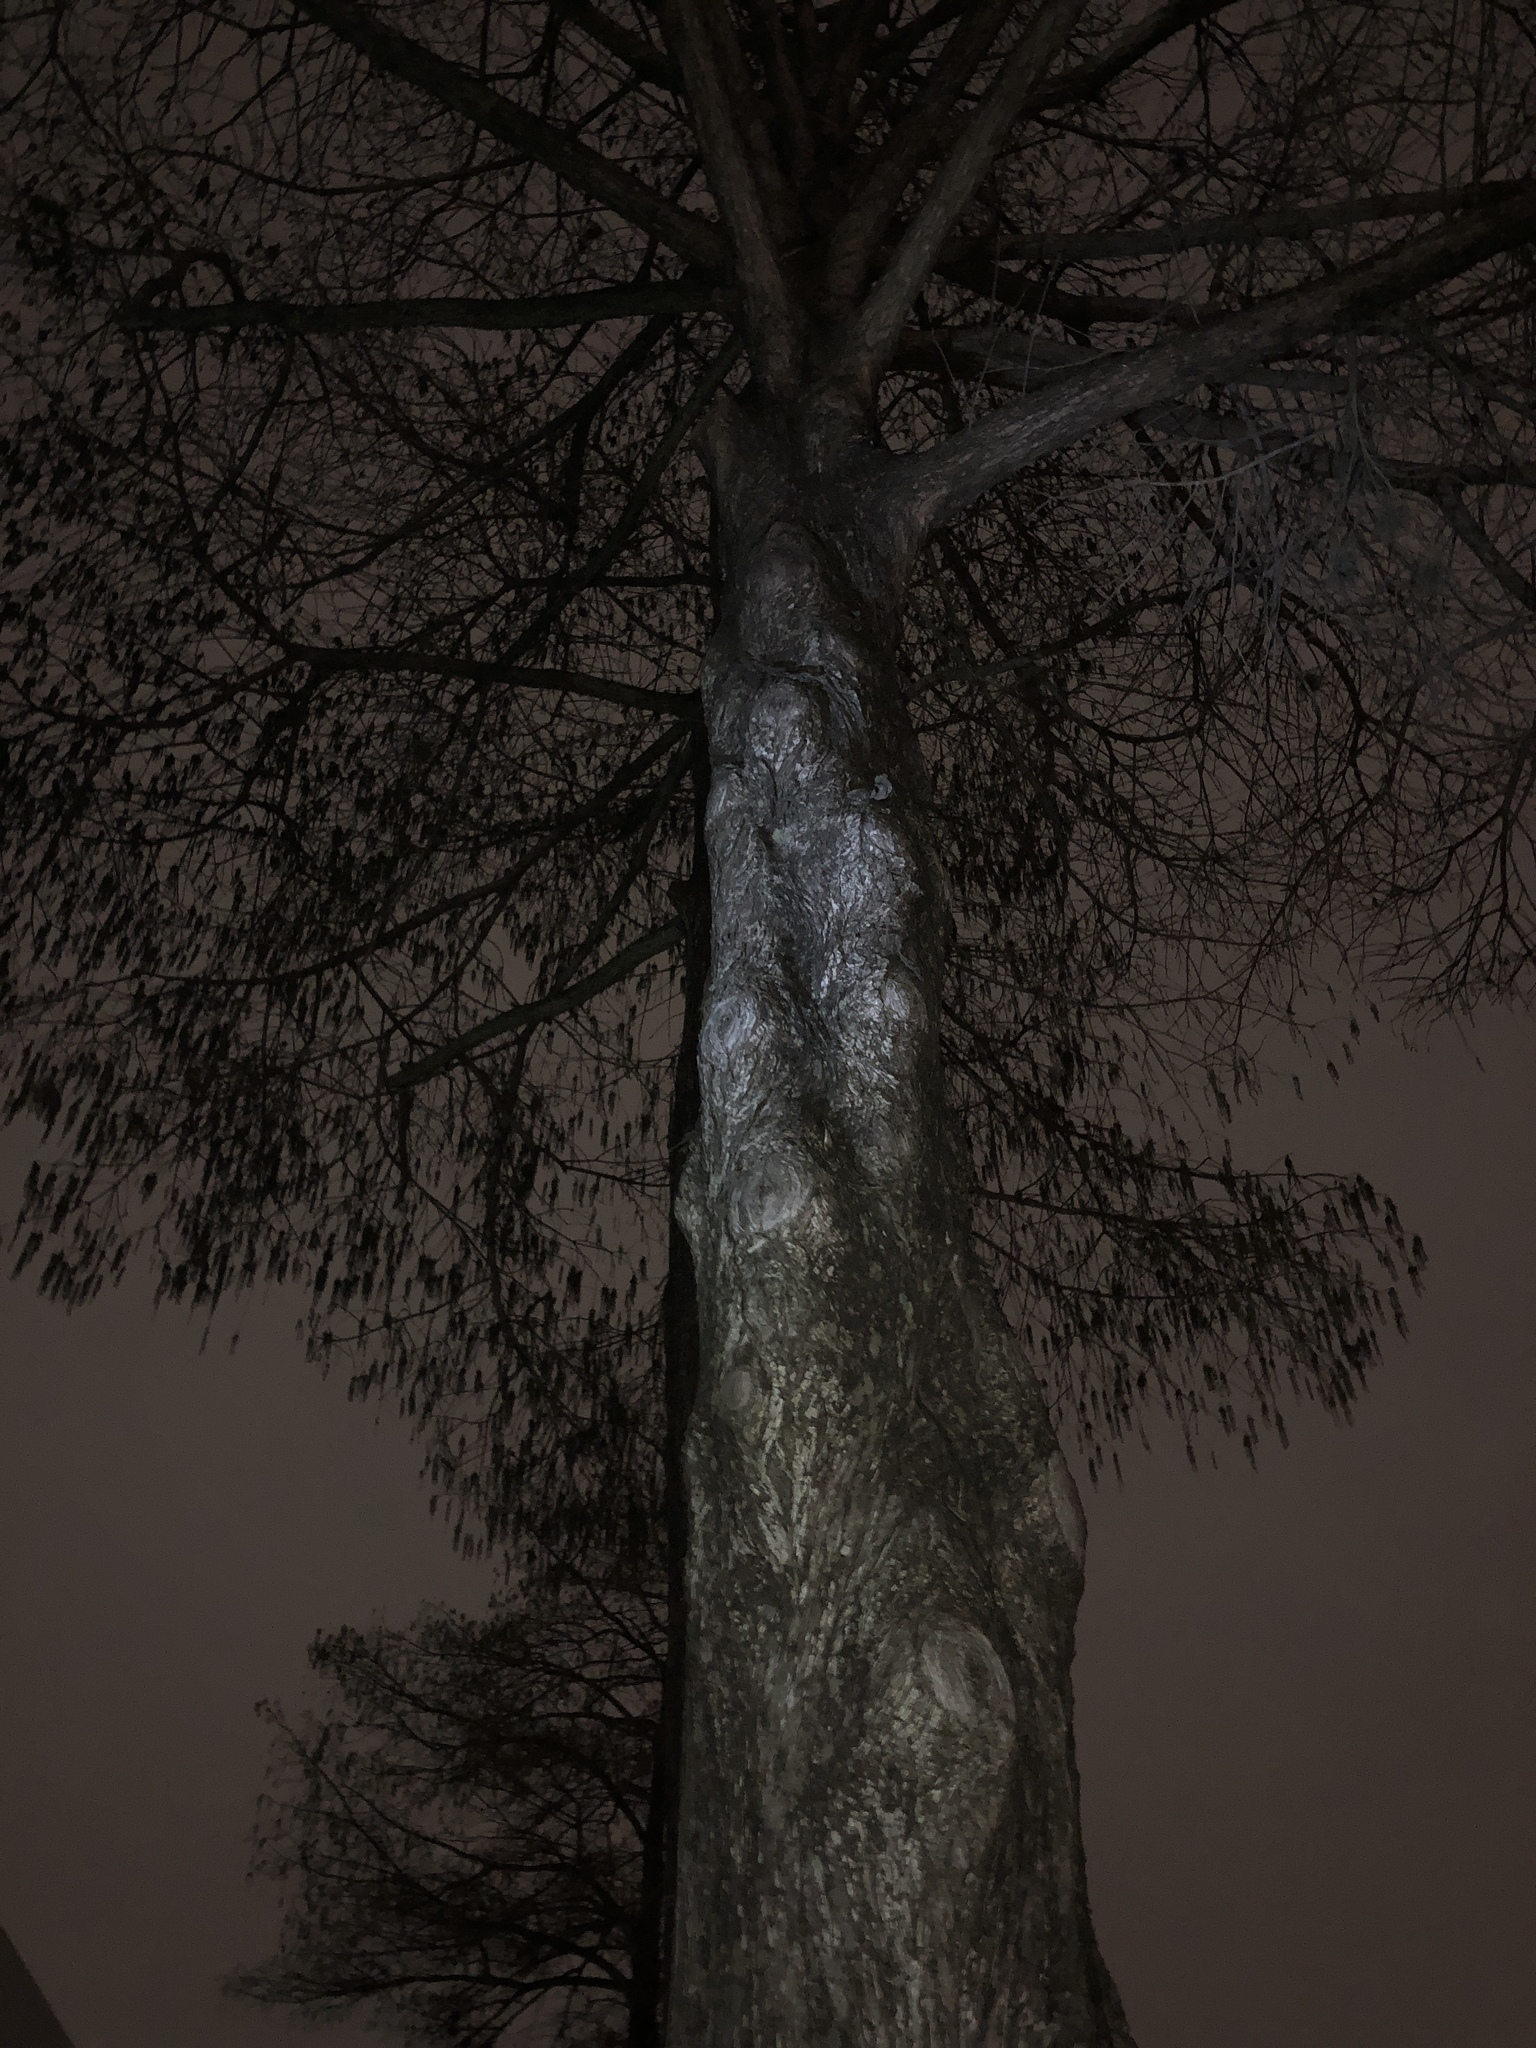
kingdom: Plantae
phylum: Tracheophyta
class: Pinopsida
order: Pinales
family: Cupressaceae
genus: Taxodium
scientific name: Taxodium distichum
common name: Bald cypress
